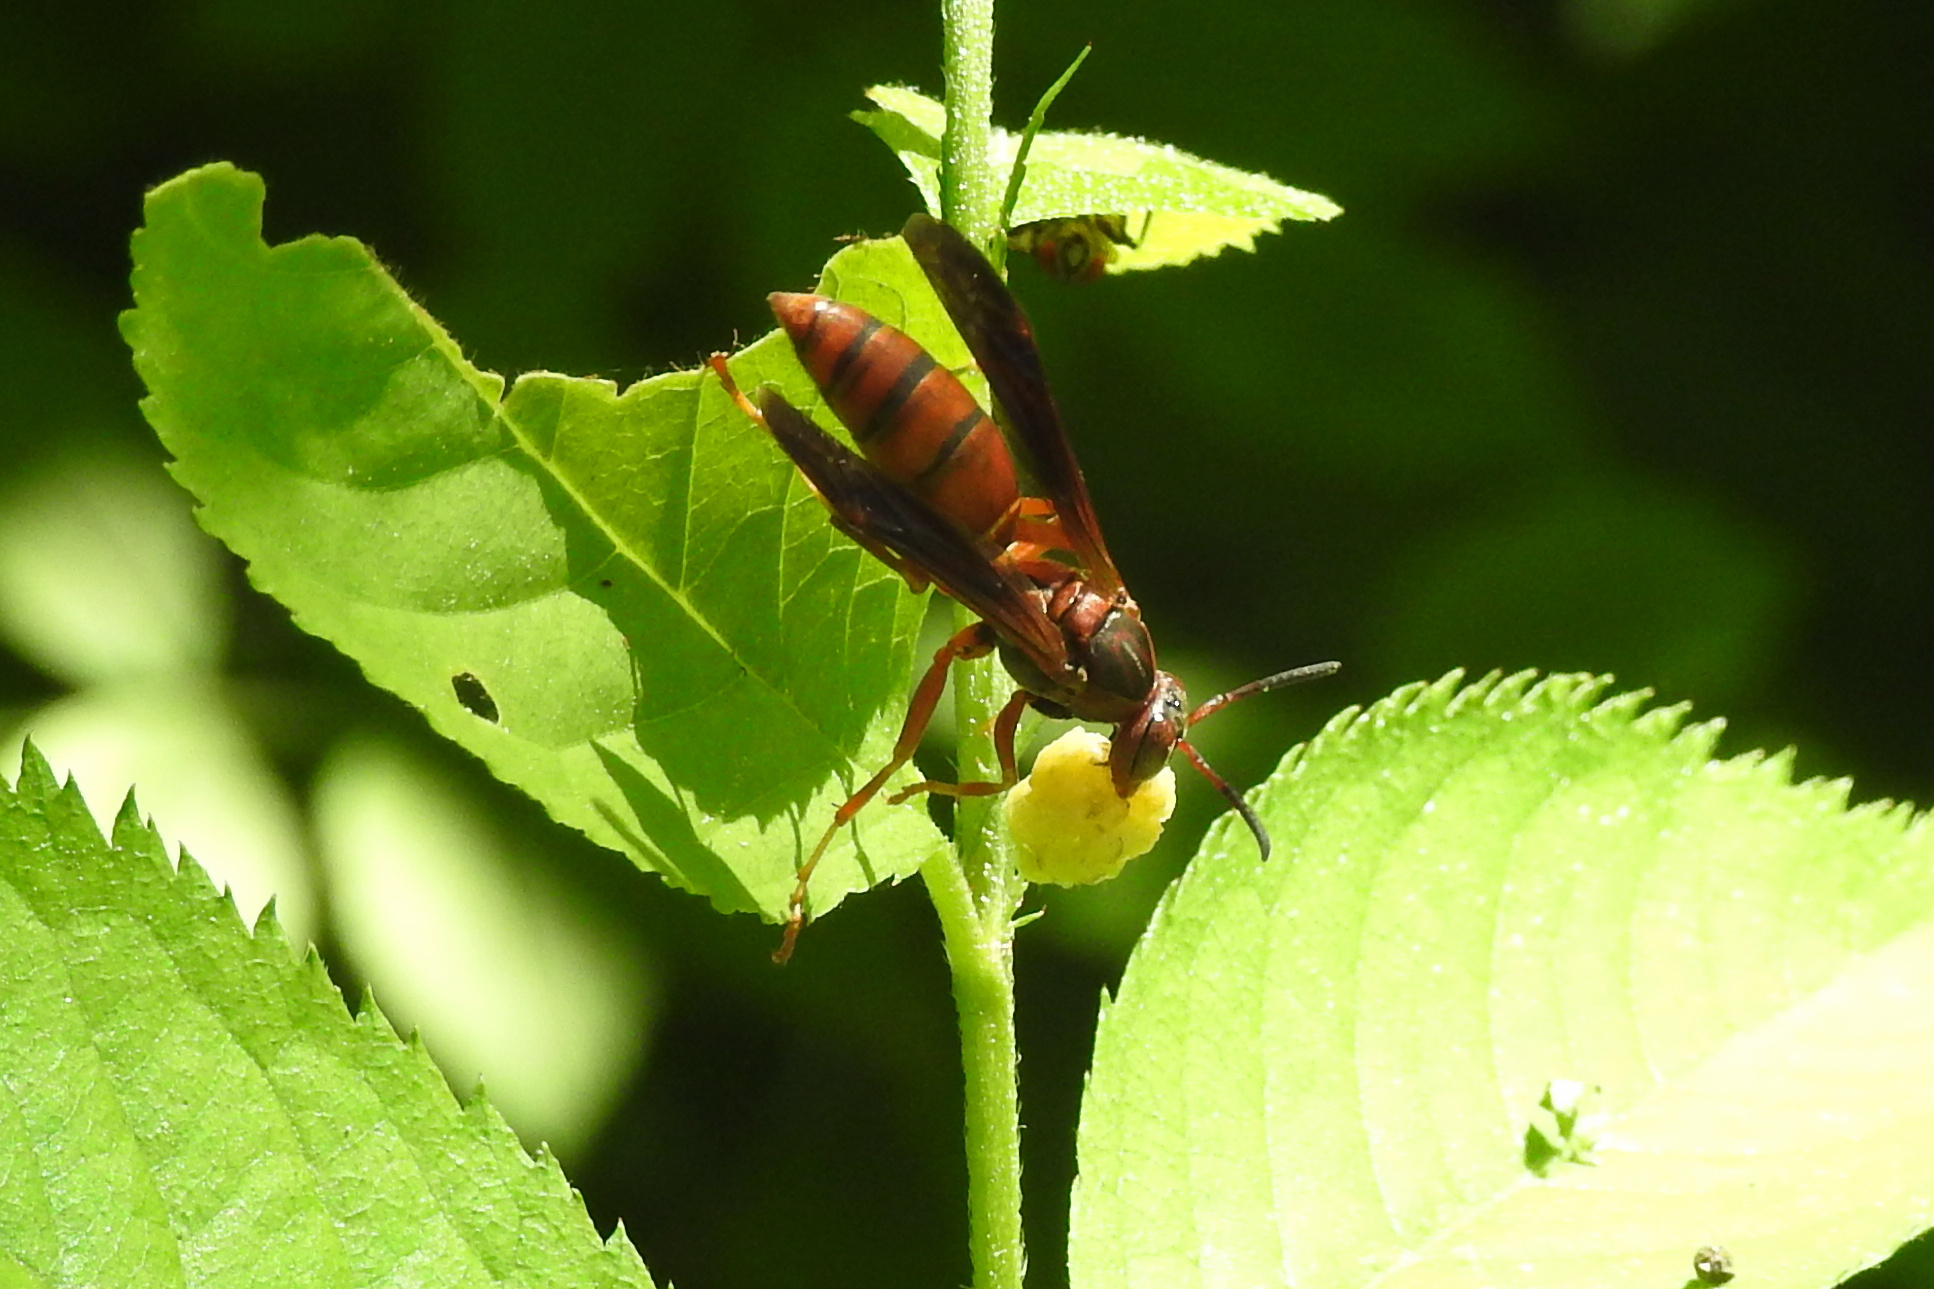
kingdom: Animalia
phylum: Arthropoda
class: Insecta
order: Hymenoptera
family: Eumenidae
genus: Polistes
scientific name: Polistes fuscatus
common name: Dark paper wasp
